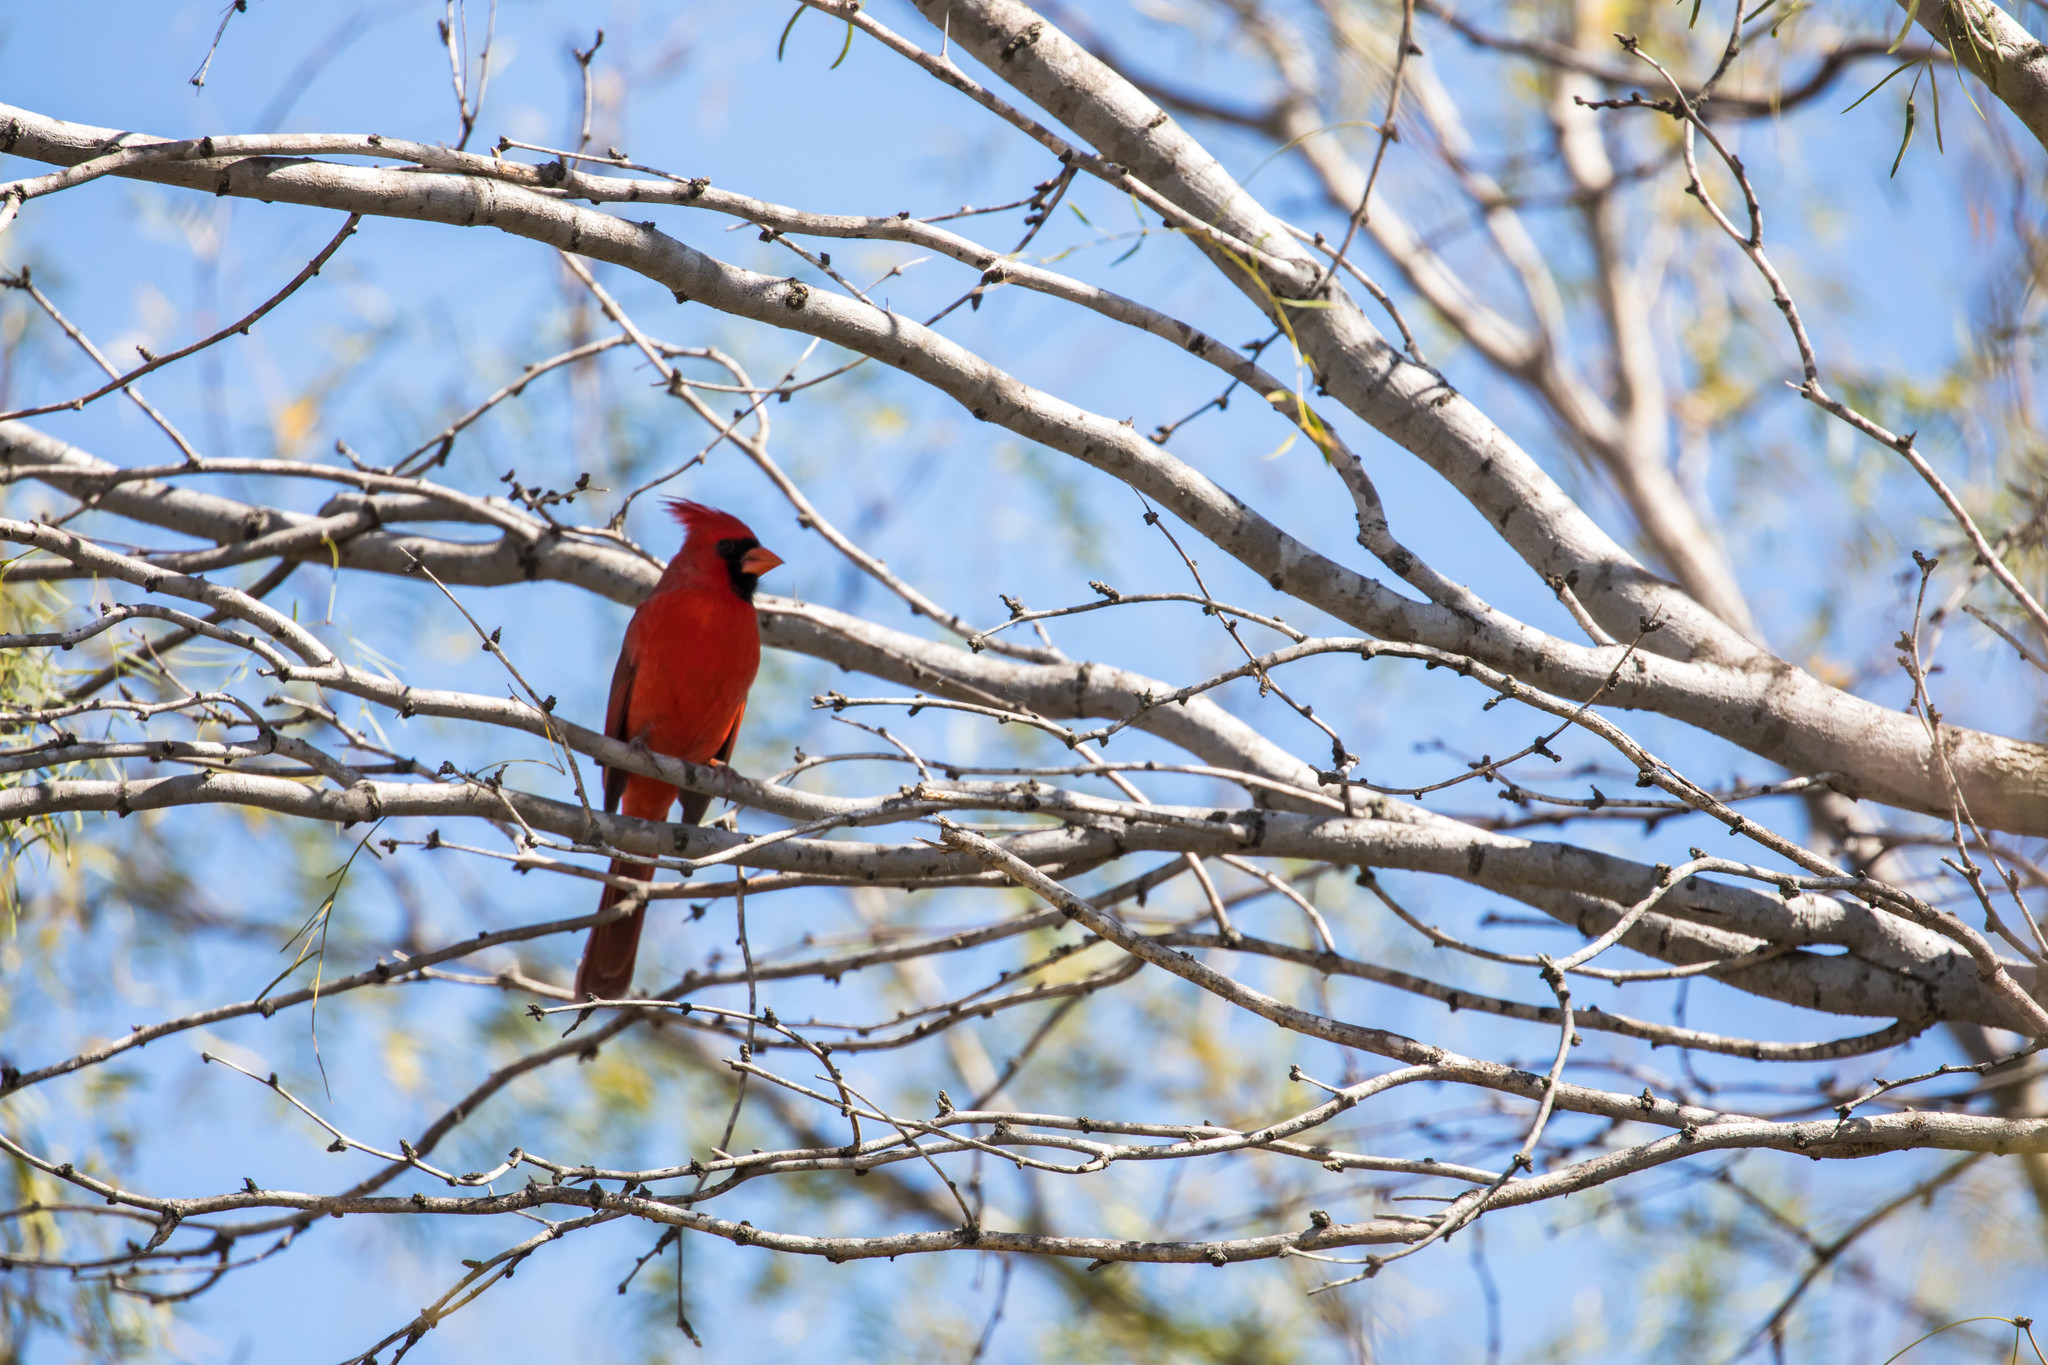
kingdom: Animalia
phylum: Chordata
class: Aves
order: Passeriformes
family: Cardinalidae
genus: Cardinalis
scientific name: Cardinalis cardinalis
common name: Northern cardinal
